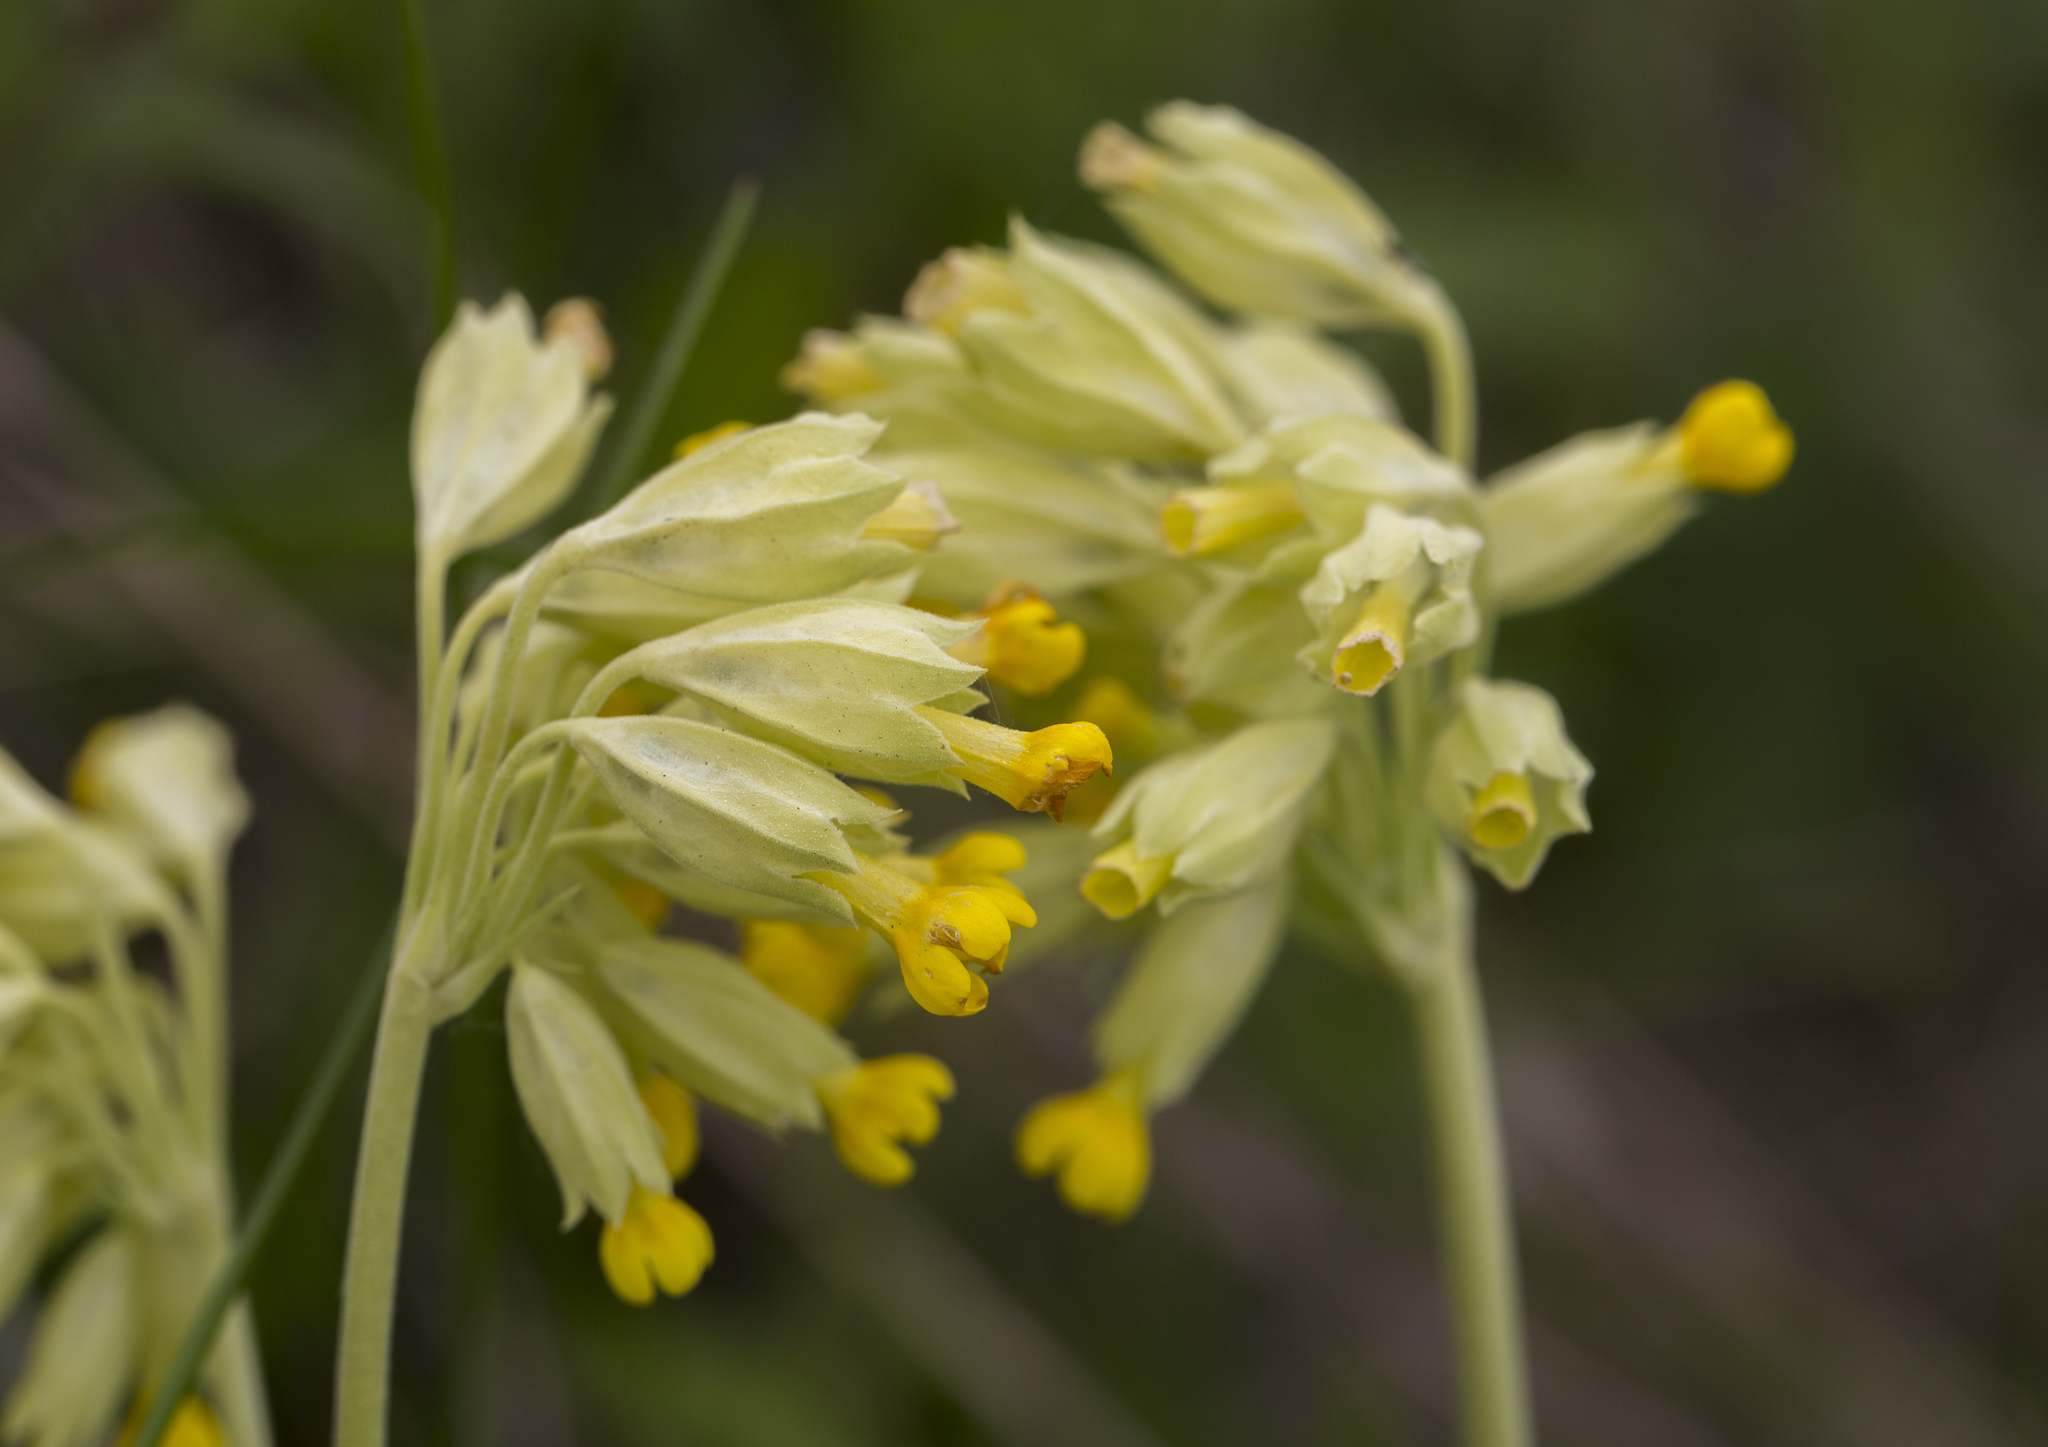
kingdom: Plantae
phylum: Tracheophyta
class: Magnoliopsida
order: Ericales
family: Primulaceae
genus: Primula
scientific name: Primula veris
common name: Cowslip
